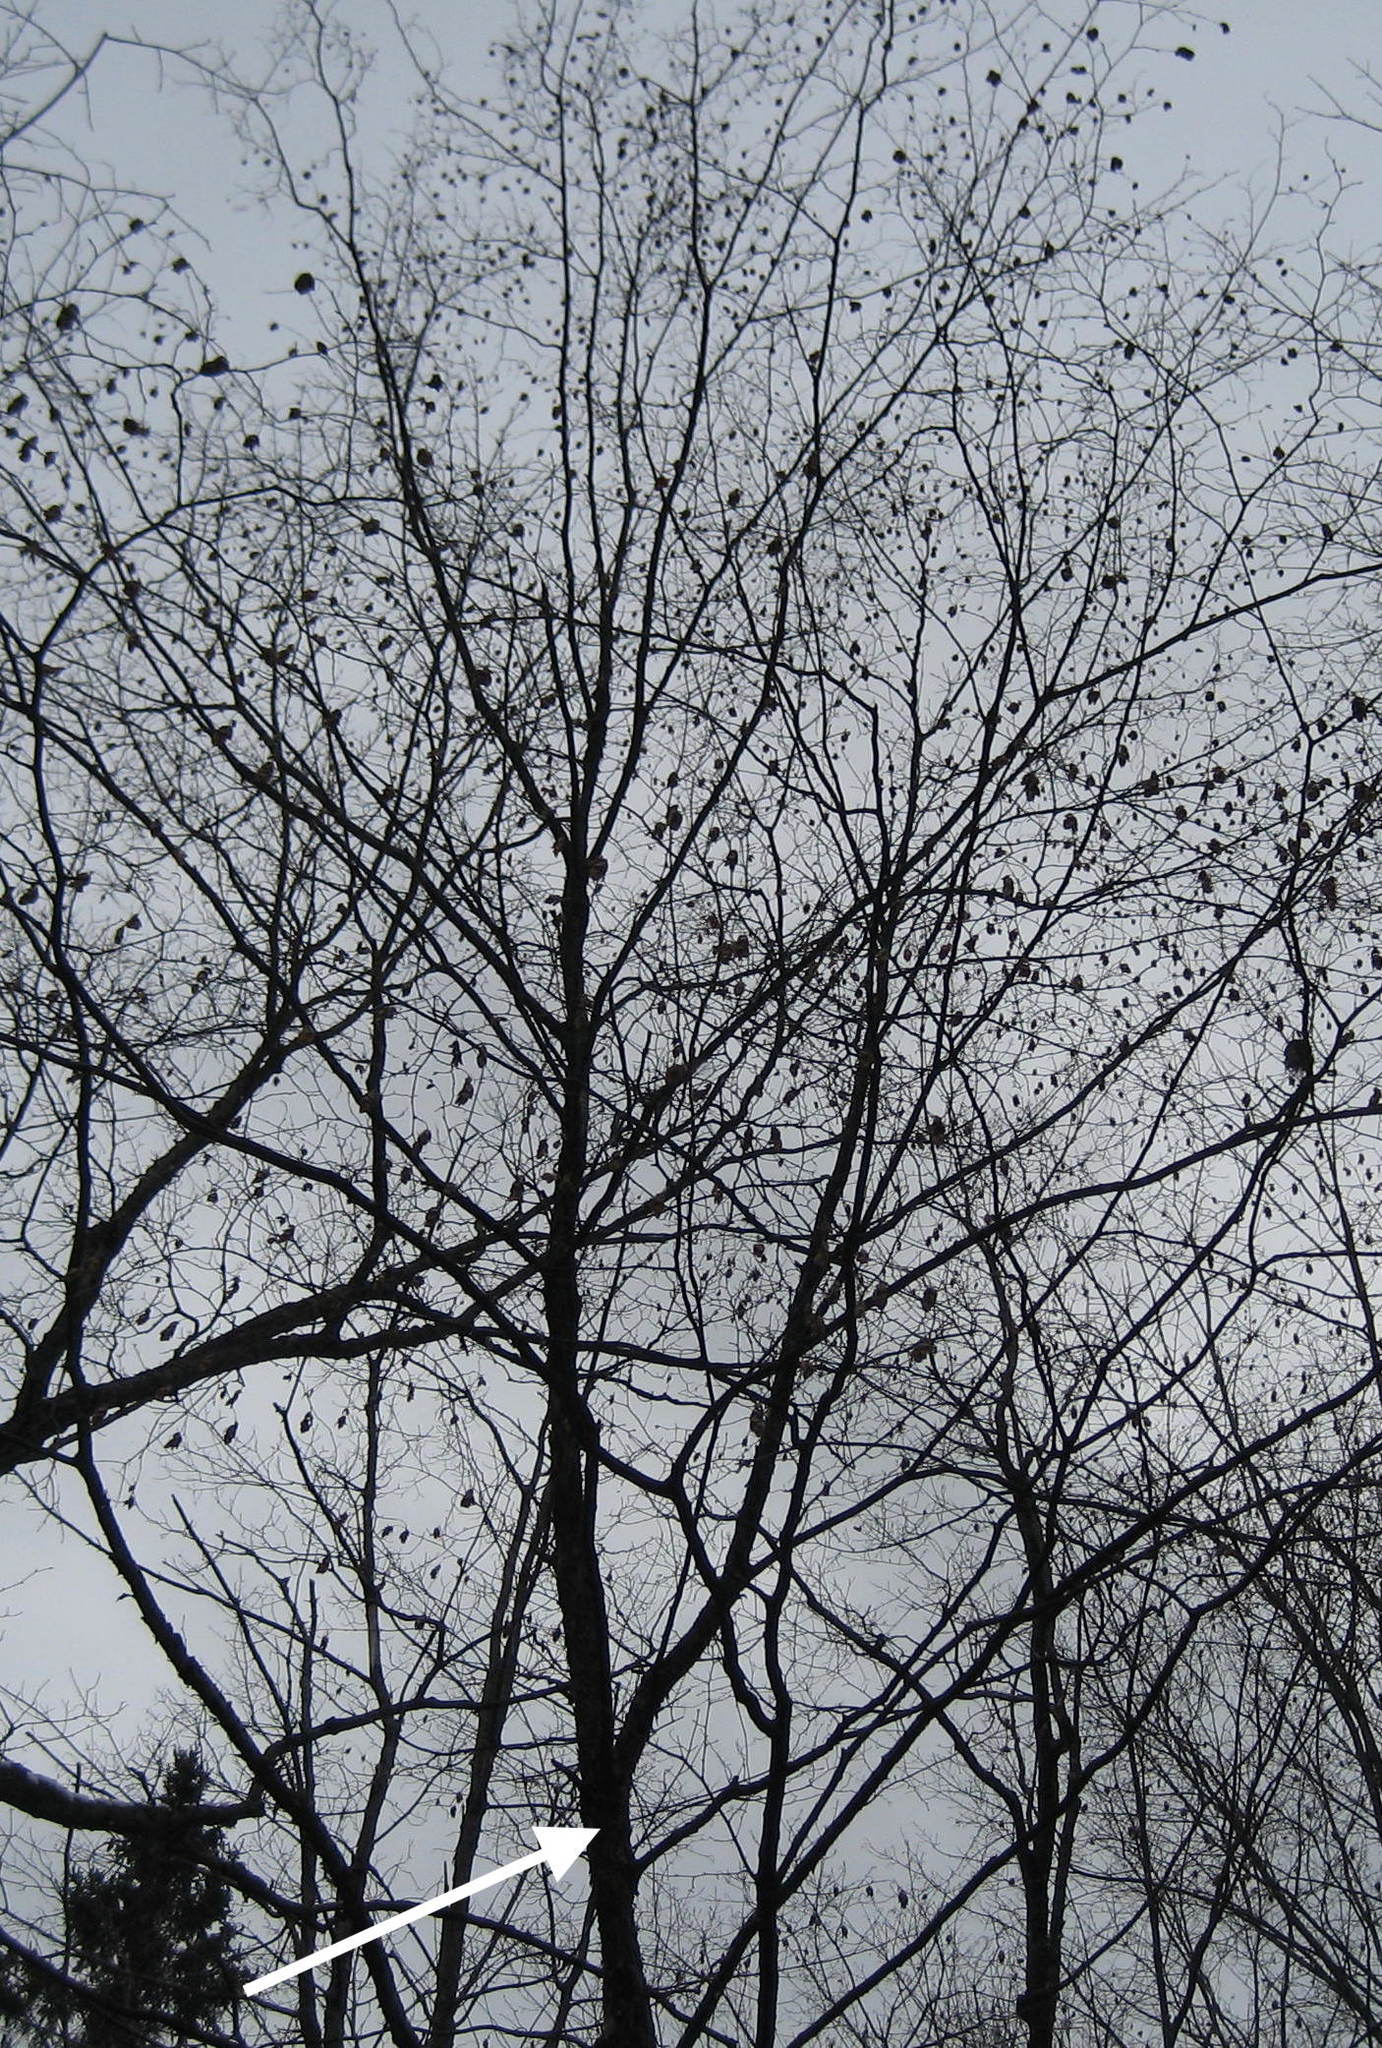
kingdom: Plantae
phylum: Tracheophyta
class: Magnoliopsida
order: Fagales
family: Betulaceae
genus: Ostrya
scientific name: Ostrya virginiana
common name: Ironwood
